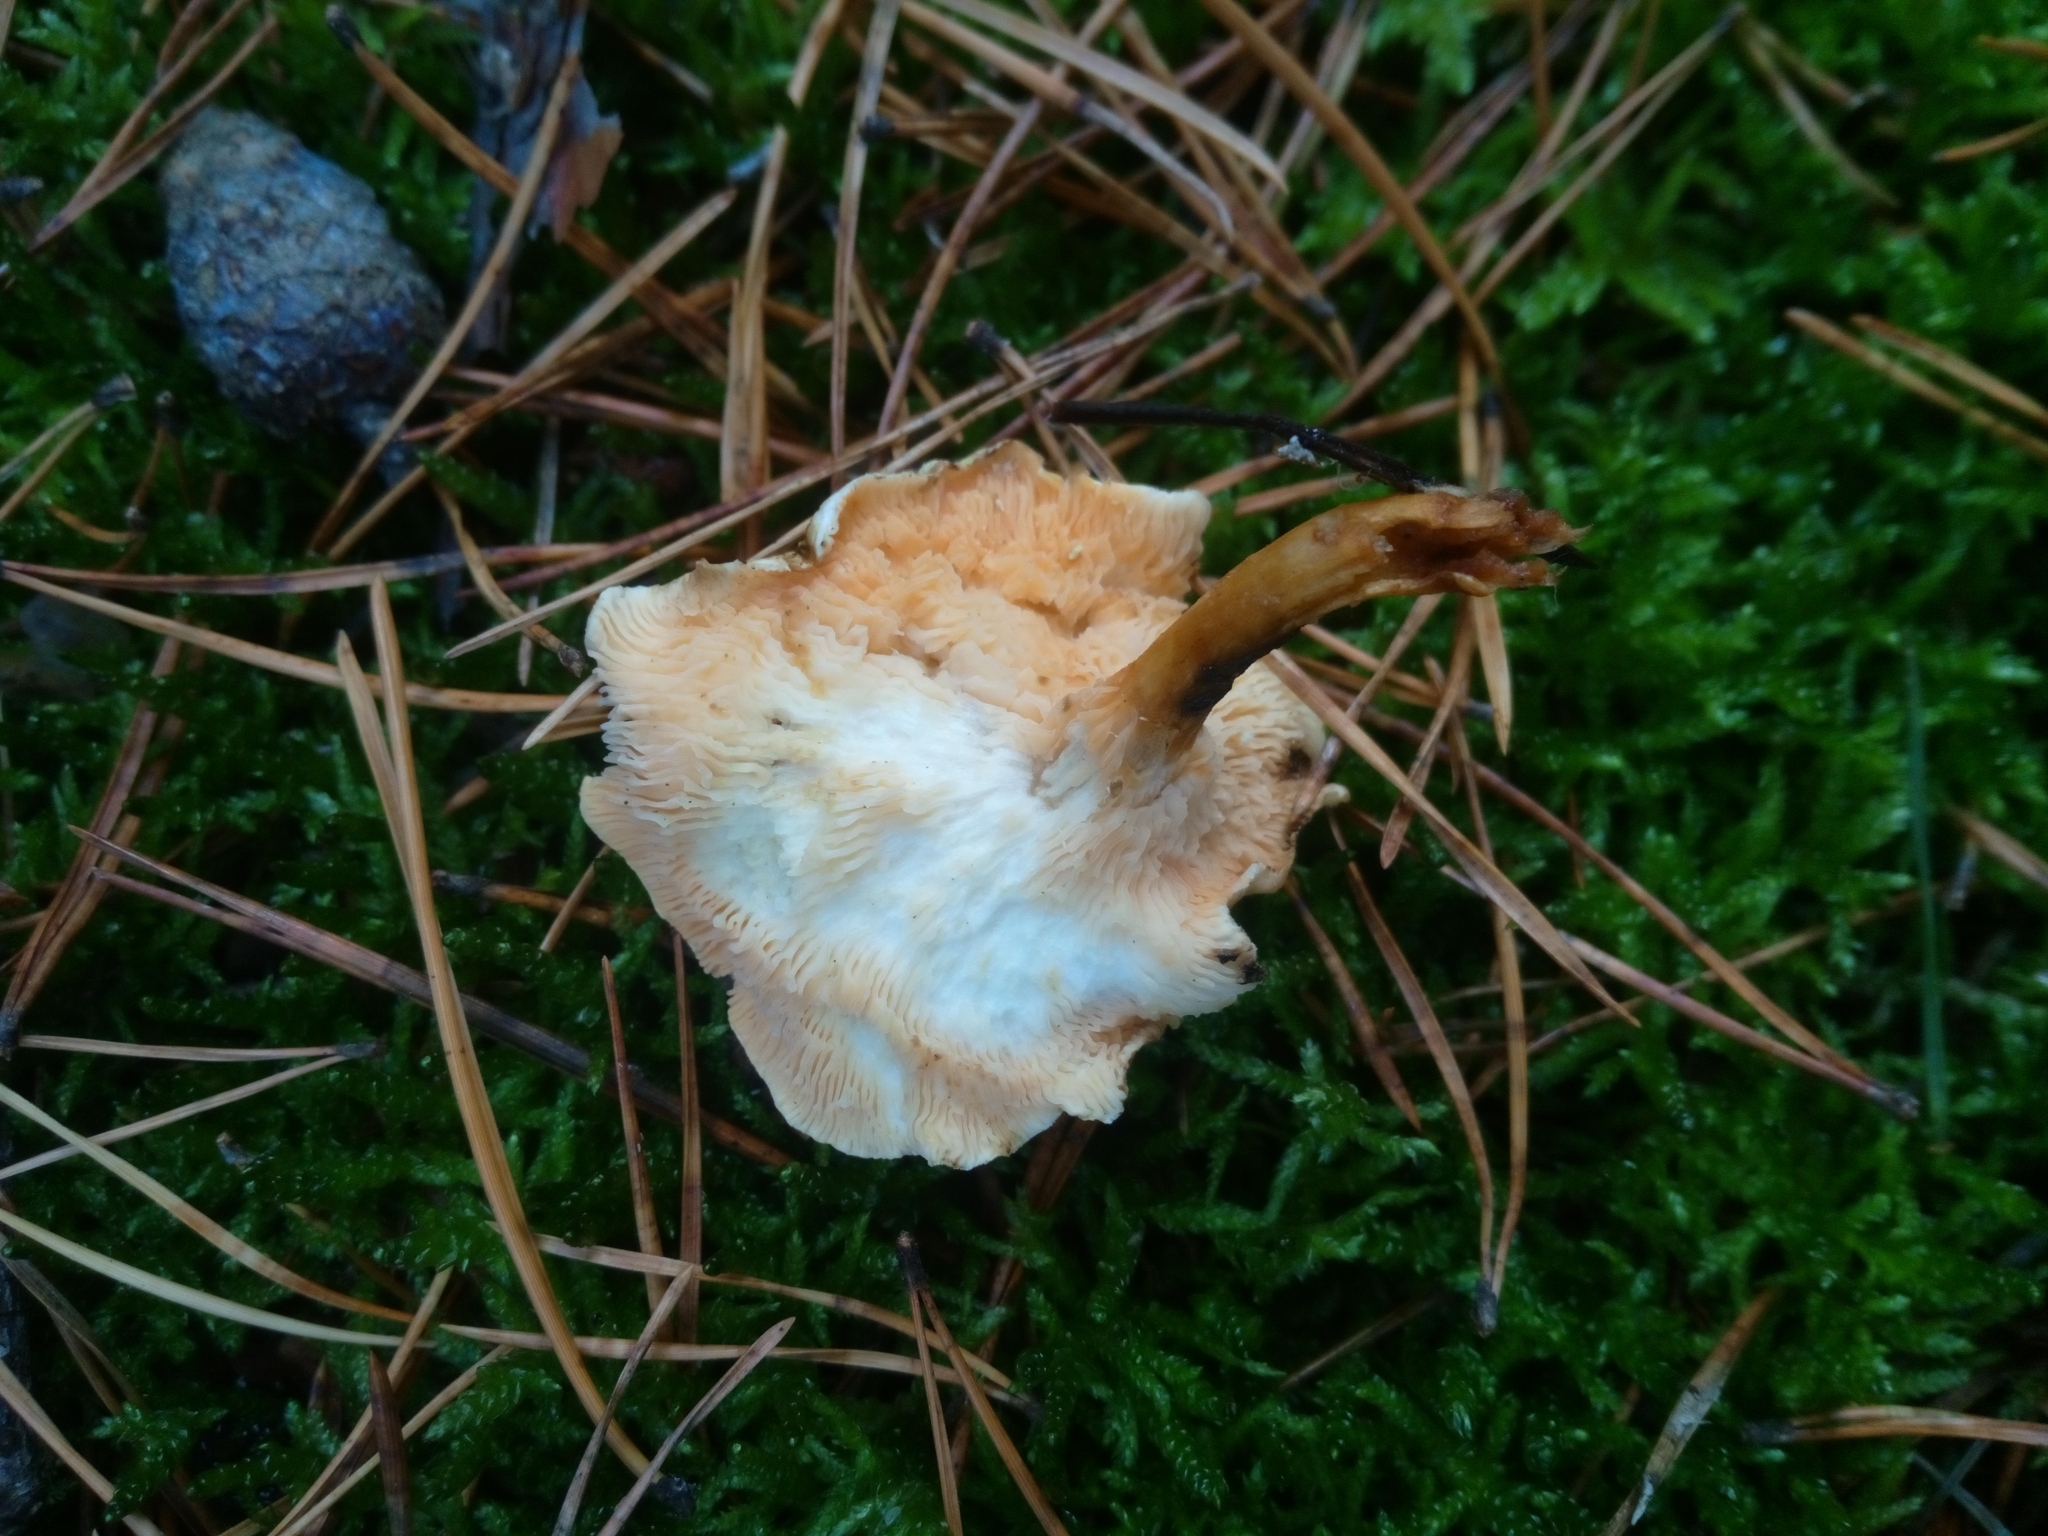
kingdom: Fungi
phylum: Basidiomycota
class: Agaricomycetes
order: Boletales
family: Hygrophoropsidaceae
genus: Hygrophoropsis
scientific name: Hygrophoropsis aurantiaca
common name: False chanterelle
